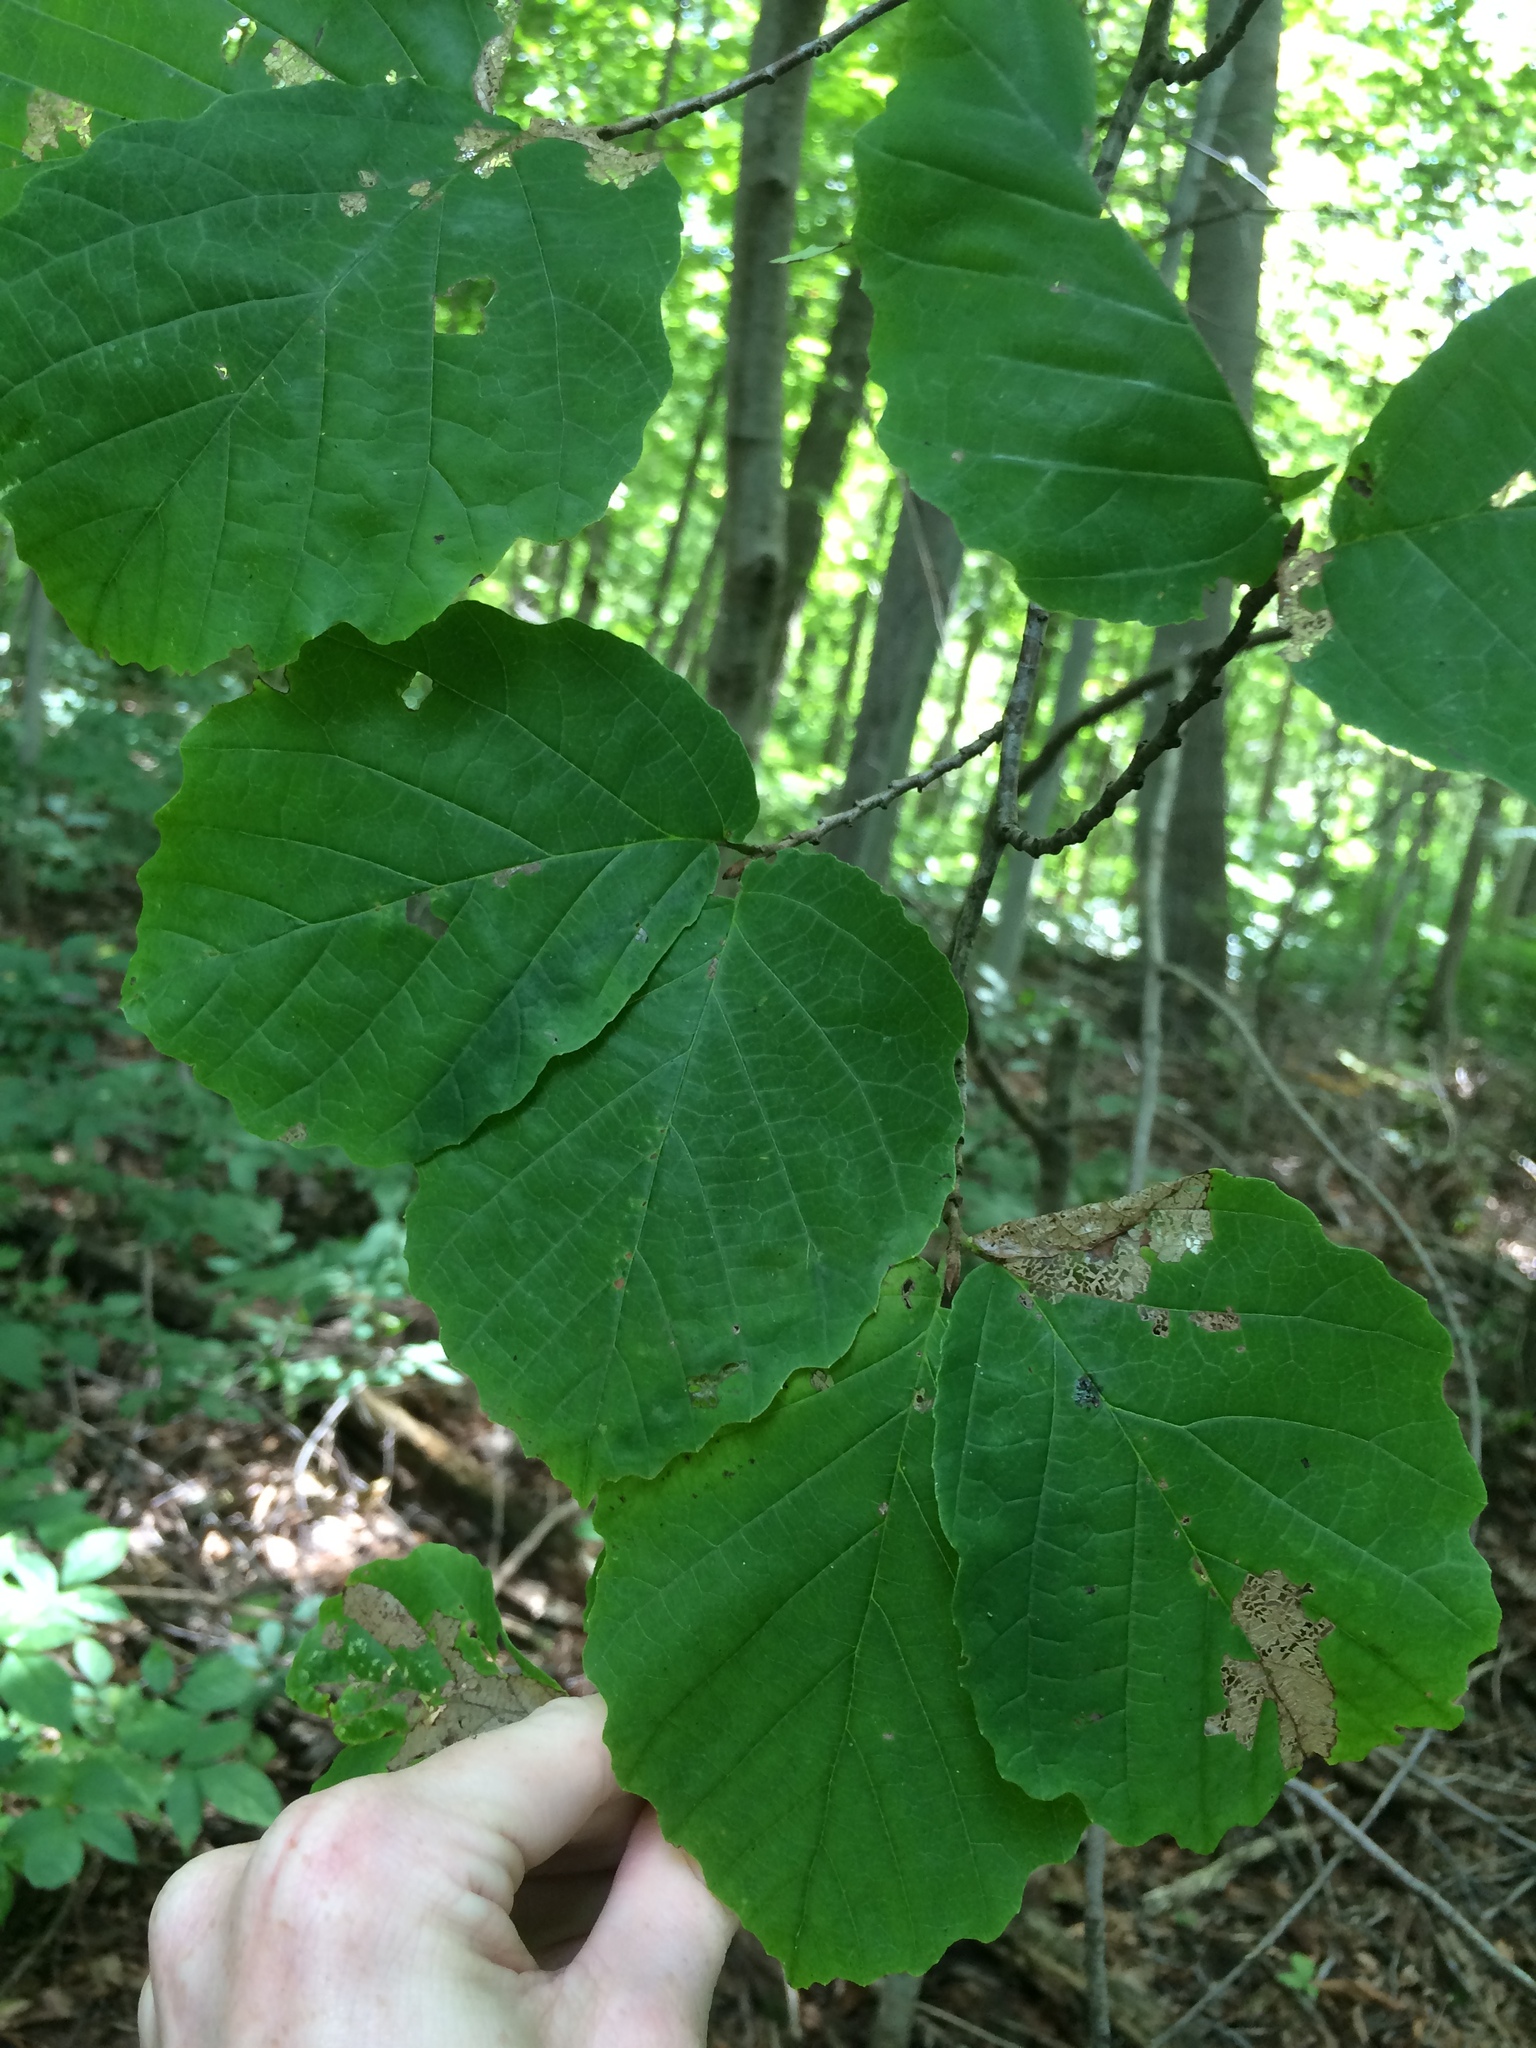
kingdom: Plantae
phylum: Tracheophyta
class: Magnoliopsida
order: Saxifragales
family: Hamamelidaceae
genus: Hamamelis
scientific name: Hamamelis virginiana
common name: Witch-hazel
